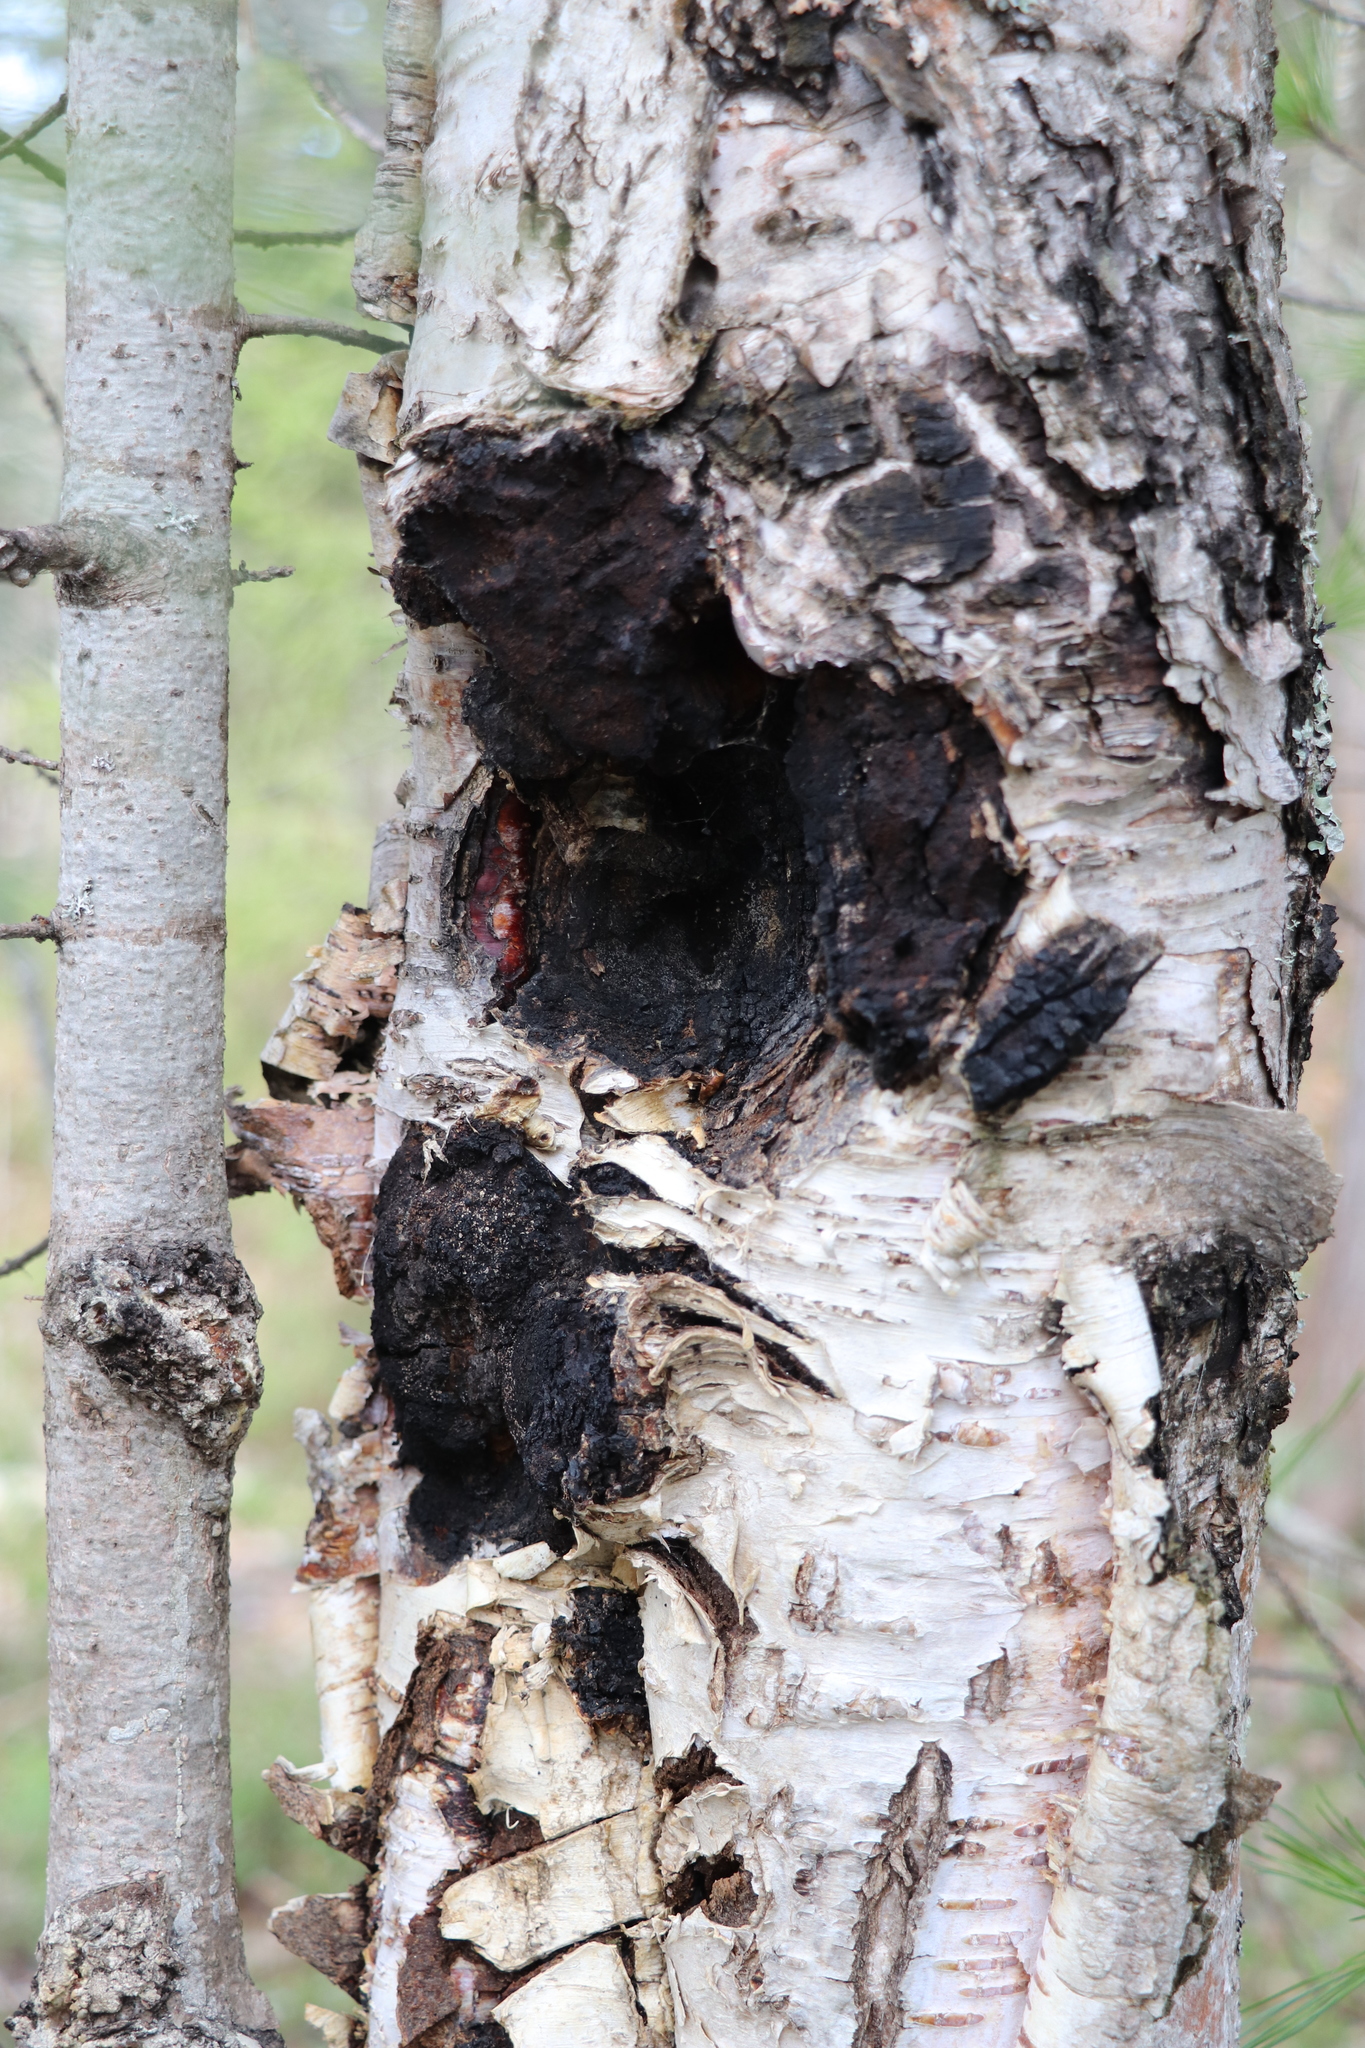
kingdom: Fungi
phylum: Basidiomycota
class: Agaricomycetes
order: Hymenochaetales
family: Hymenochaetaceae
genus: Inonotus
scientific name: Inonotus obliquus
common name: Chaga
